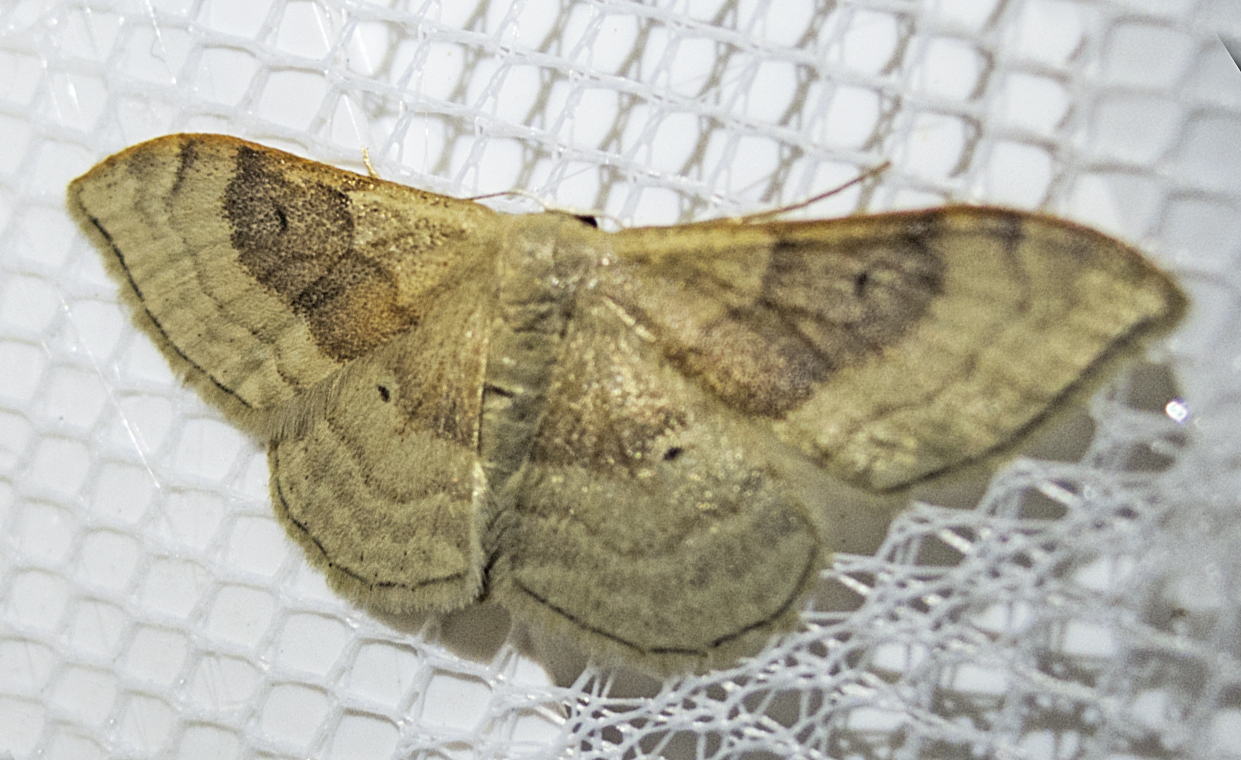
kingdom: Animalia
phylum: Arthropoda
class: Insecta
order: Lepidoptera
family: Geometridae
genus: Idaea
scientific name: Idaea degeneraria
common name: Portland ribbon wave
